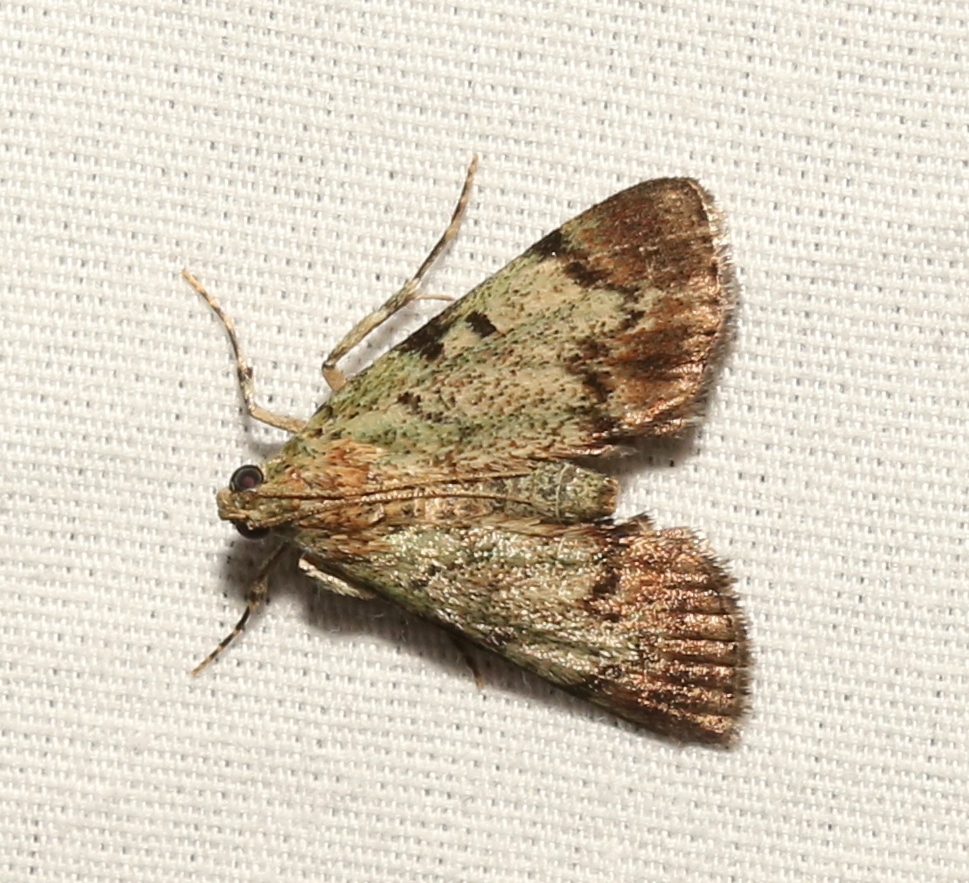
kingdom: Animalia
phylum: Arthropoda
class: Insecta
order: Lepidoptera
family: Pyralidae
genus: Epipaschia
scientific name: Epipaschia superatalis
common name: Dimorphic macalla moth
